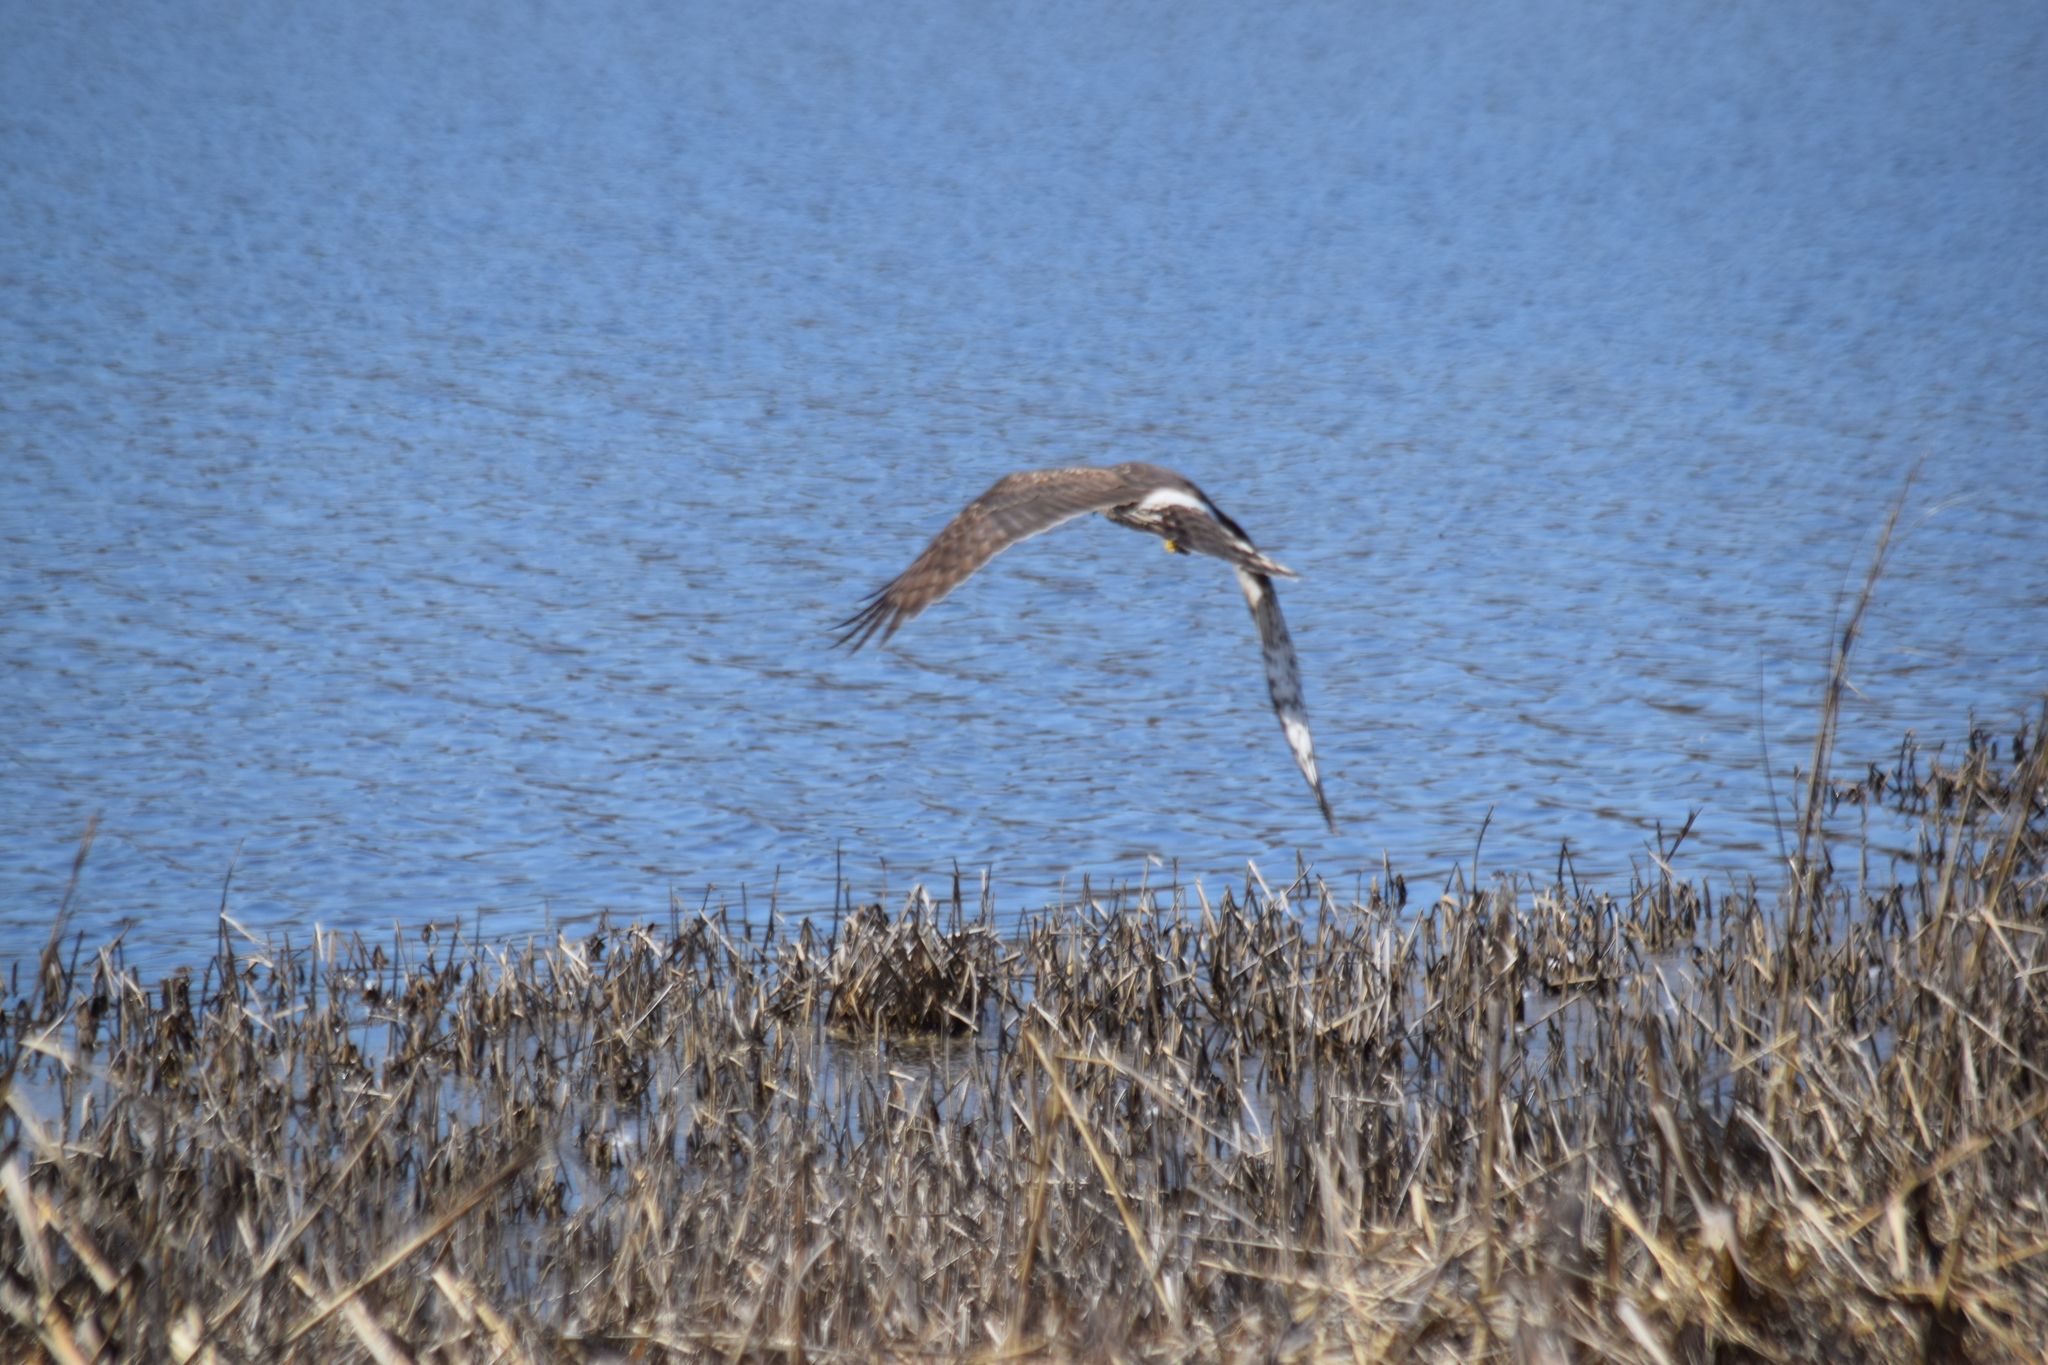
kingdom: Animalia
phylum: Chordata
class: Aves
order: Accipitriformes
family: Accipitridae
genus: Circus
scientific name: Circus cyaneus
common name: Hen harrier
